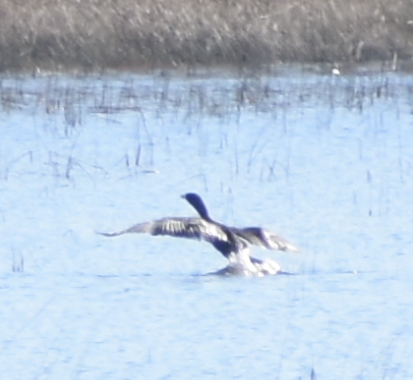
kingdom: Animalia
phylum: Chordata
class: Aves
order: Suliformes
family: Phalacrocoracidae
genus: Phalacrocorax
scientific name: Phalacrocorax auritus
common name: Double-crested cormorant
